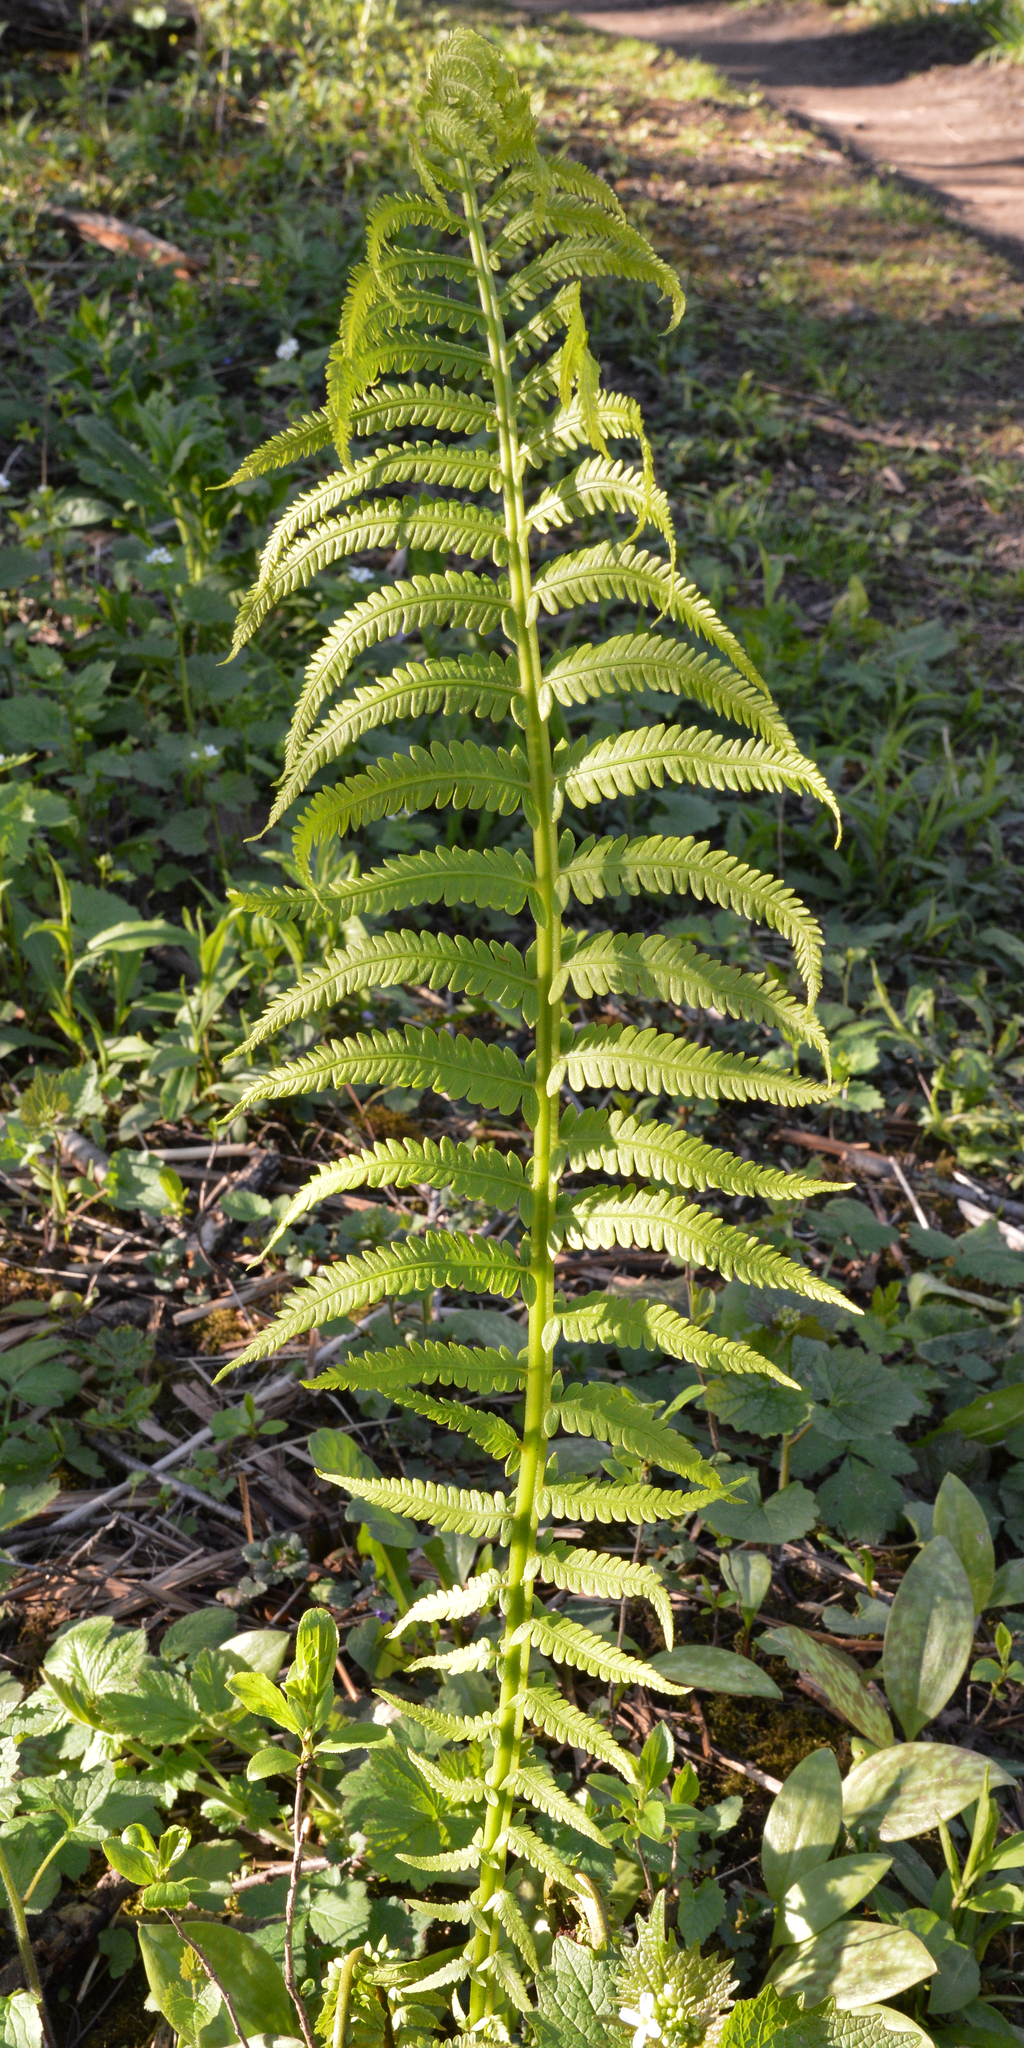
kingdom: Plantae
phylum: Tracheophyta
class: Polypodiopsida
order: Polypodiales
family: Onocleaceae
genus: Matteuccia
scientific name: Matteuccia struthiopteris
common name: Ostrich fern
